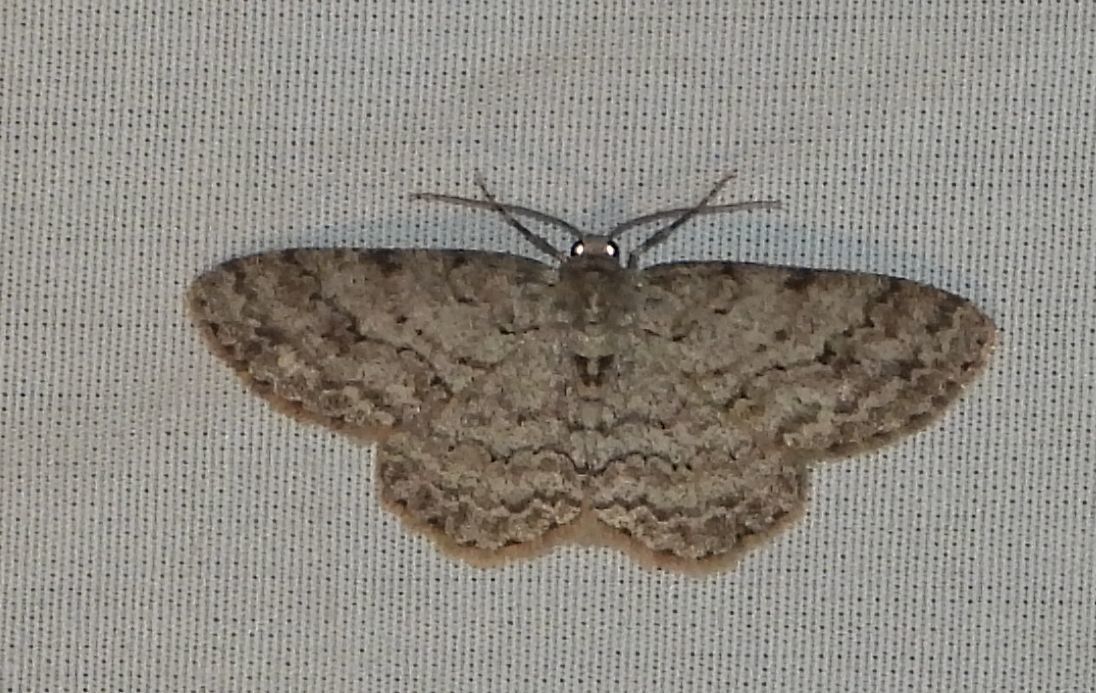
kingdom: Animalia
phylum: Arthropoda
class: Insecta
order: Lepidoptera
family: Geometridae
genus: Ectropis
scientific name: Ectropis crepuscularia
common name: Engrailed
